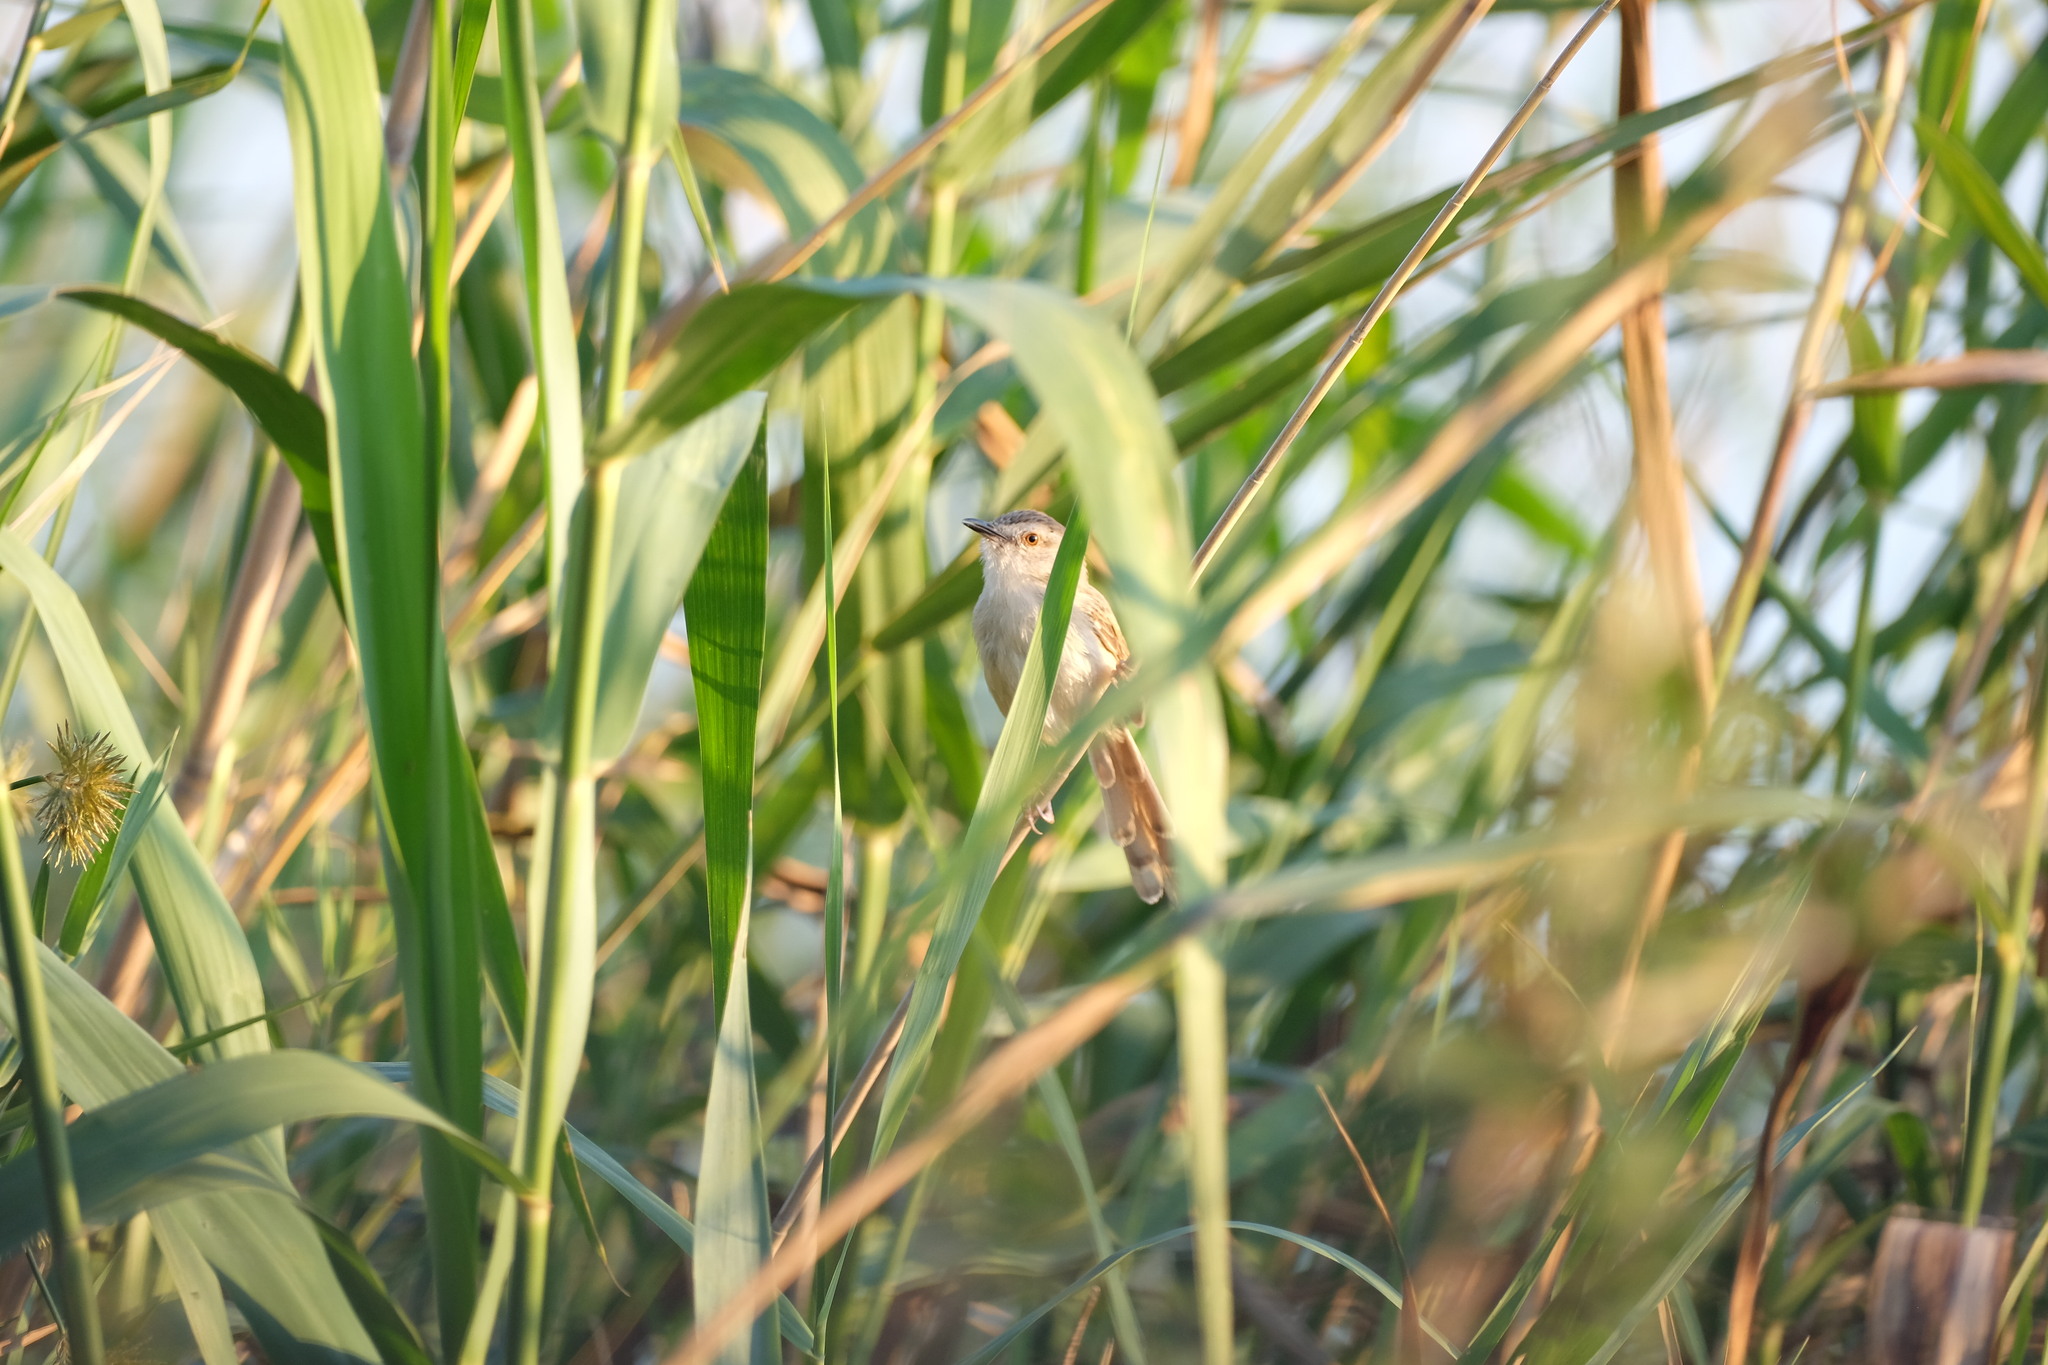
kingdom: Animalia
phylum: Chordata
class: Aves
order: Passeriformes
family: Cisticolidae
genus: Prinia
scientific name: Prinia subflava
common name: Tawny-flanked prinia
